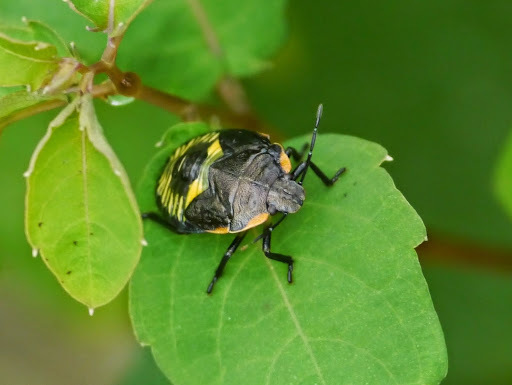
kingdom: Animalia
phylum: Arthropoda
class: Insecta
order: Hemiptera
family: Pentatomidae
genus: Chinavia
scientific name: Chinavia hilaris
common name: Green stink bug
